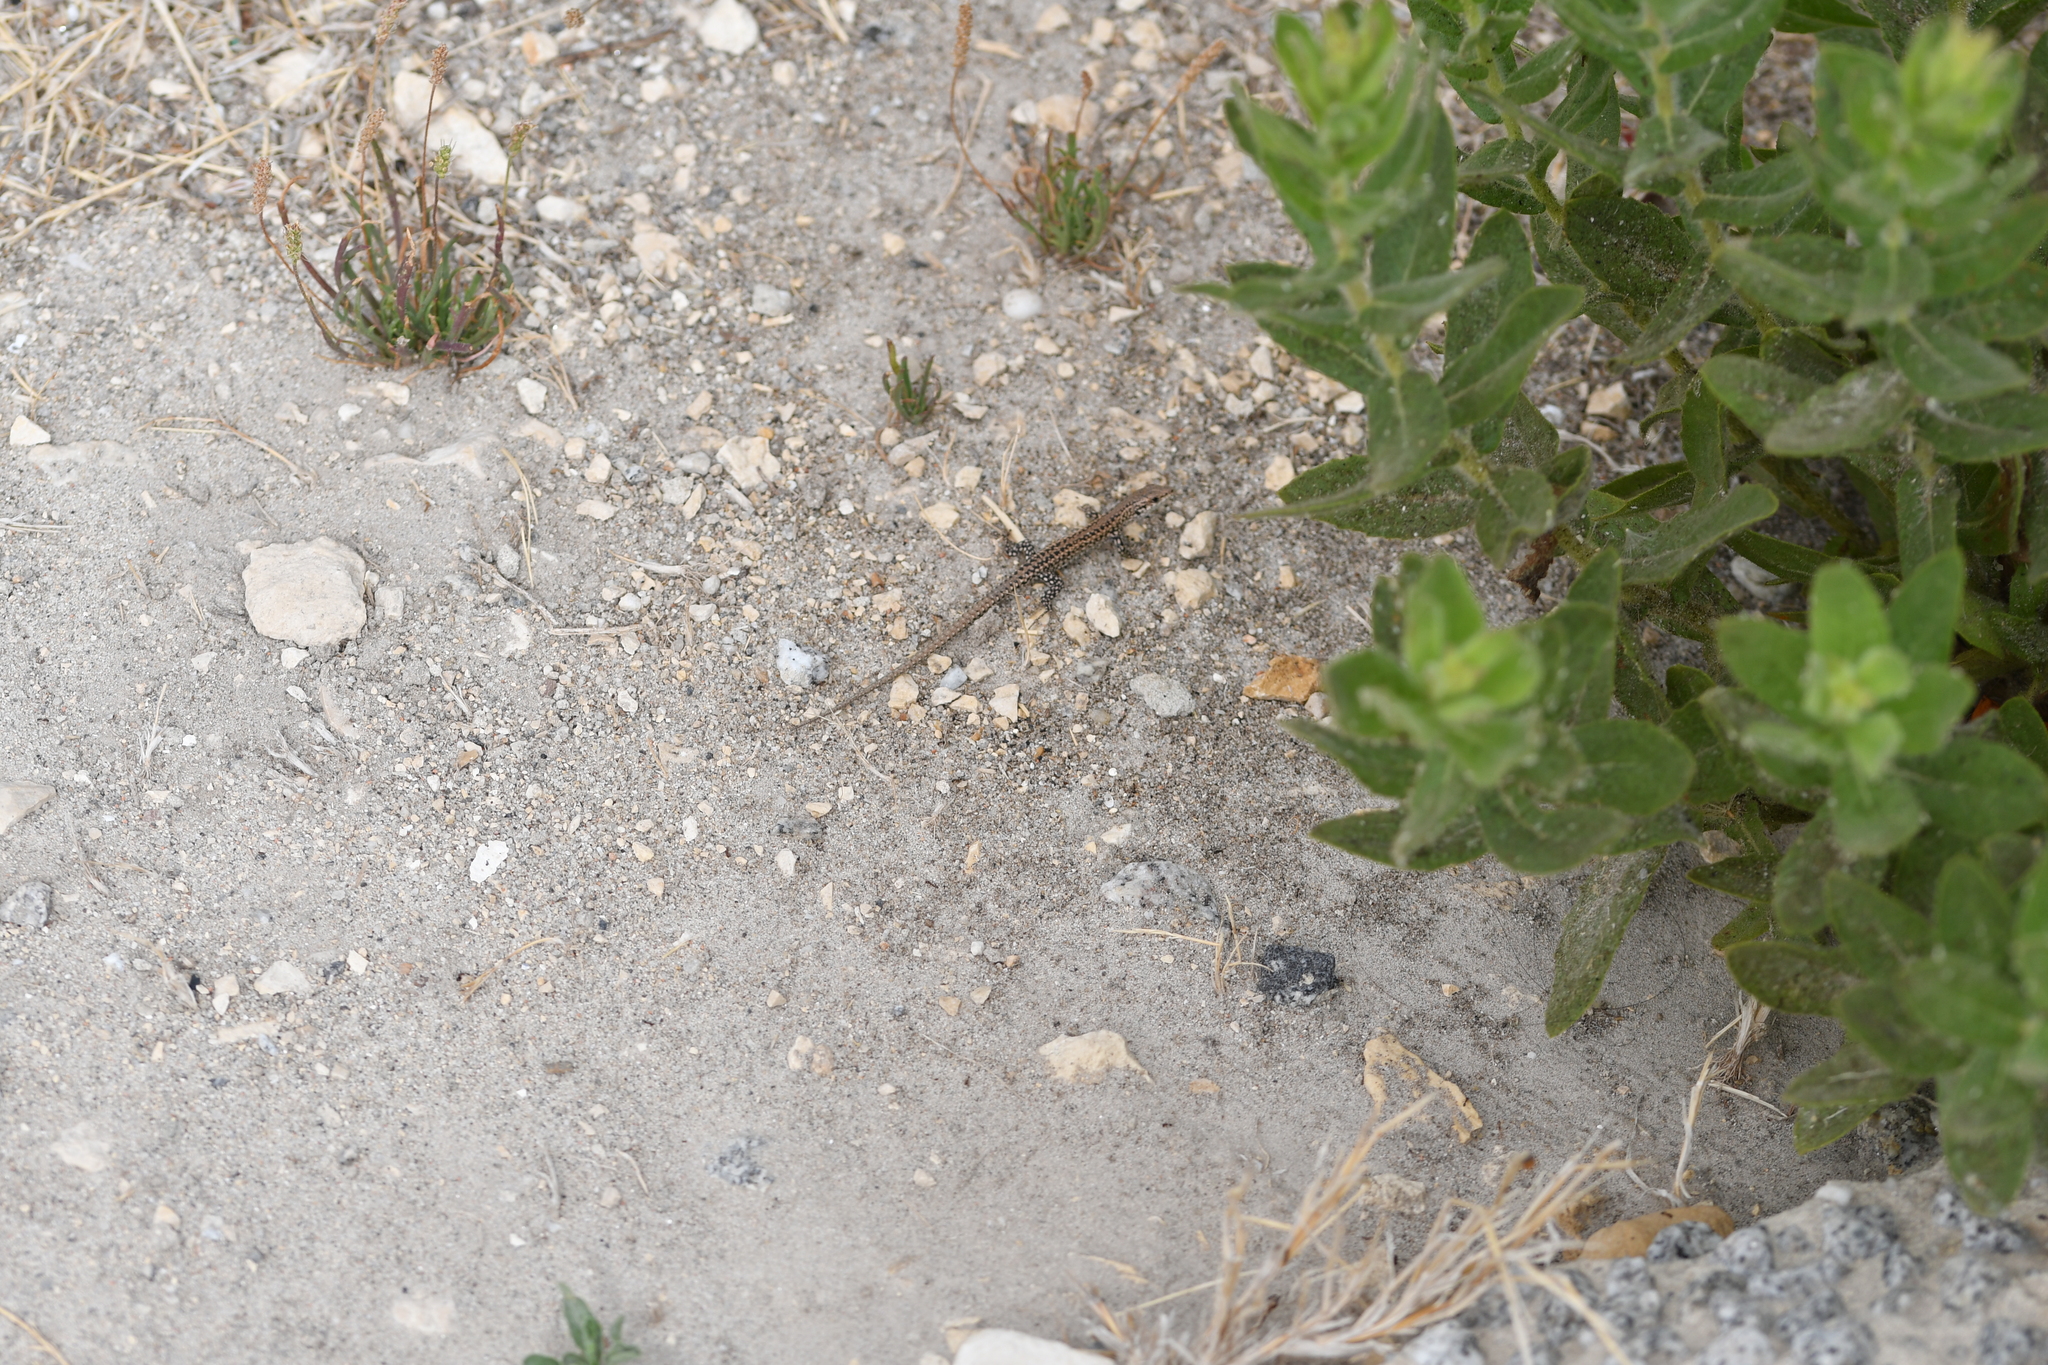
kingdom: Animalia
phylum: Chordata
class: Squamata
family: Lacertidae
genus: Podarcis
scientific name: Podarcis carbonelli
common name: Carbonelli's wall lizard
